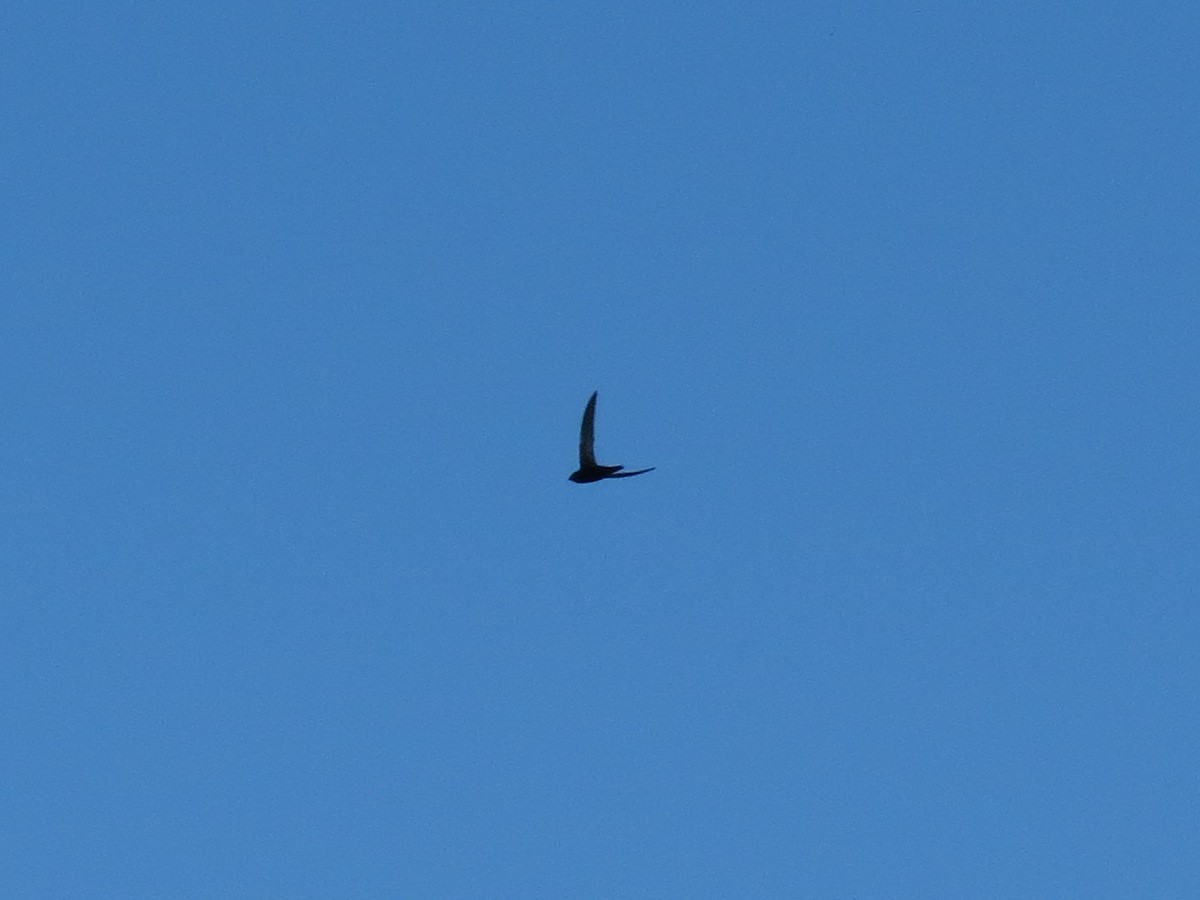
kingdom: Animalia
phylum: Chordata
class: Aves
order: Apodiformes
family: Apodidae
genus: Apus
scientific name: Apus apus
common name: Common swift
